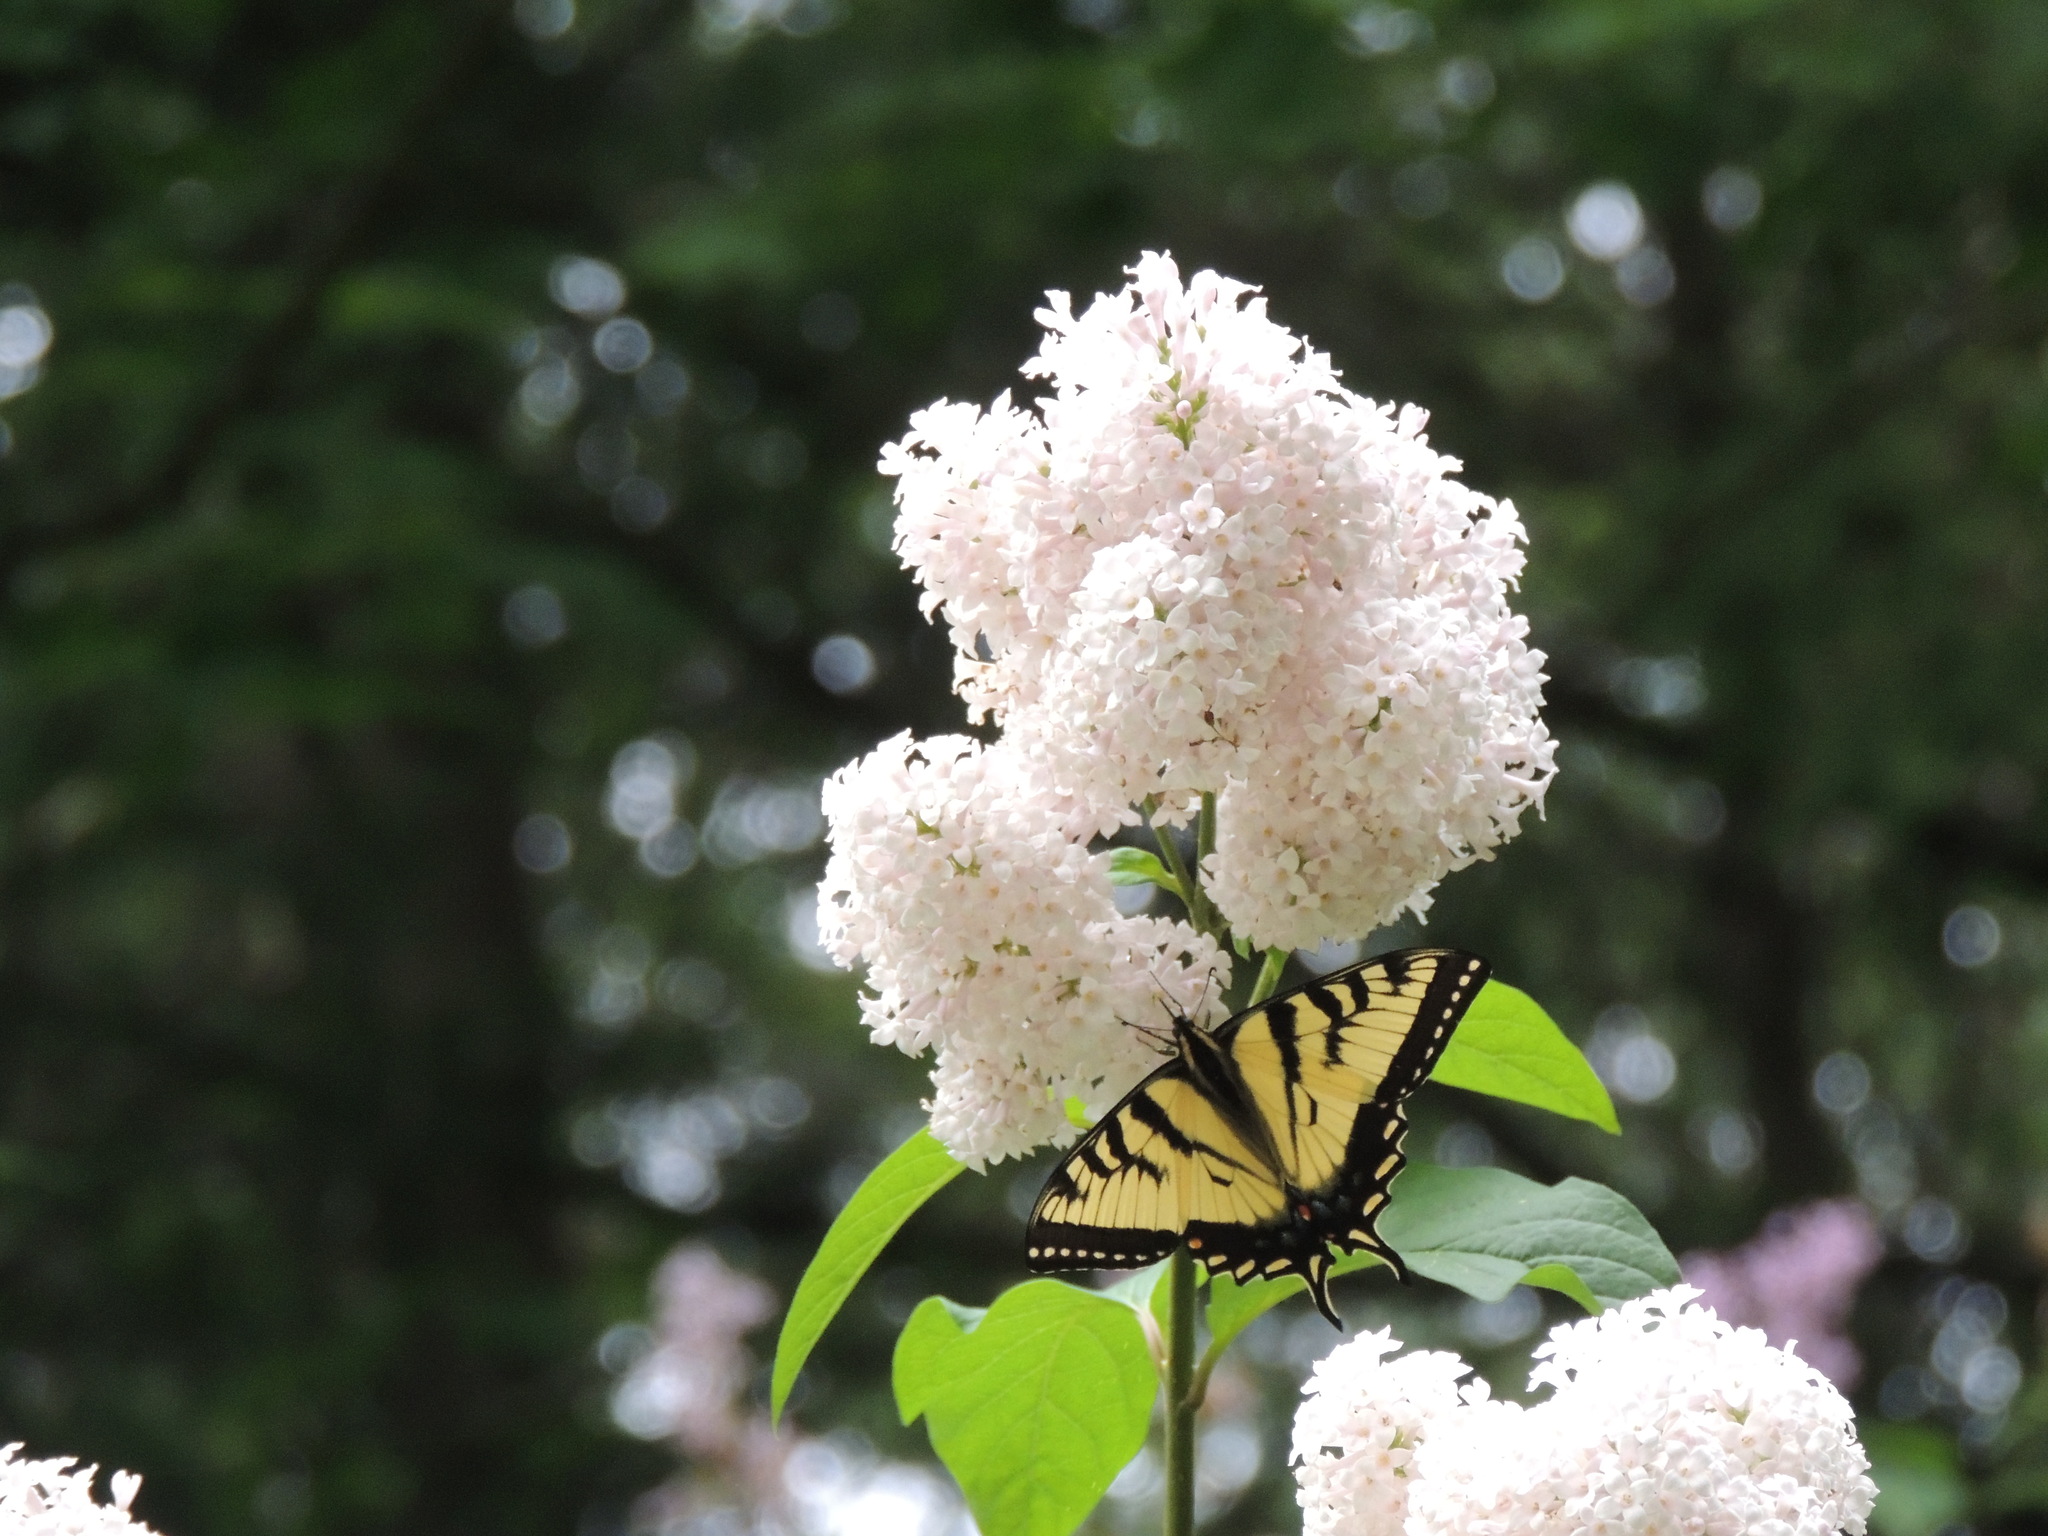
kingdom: Animalia
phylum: Arthropoda
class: Insecta
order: Lepidoptera
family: Papilionidae
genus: Pterourus
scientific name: Pterourus
